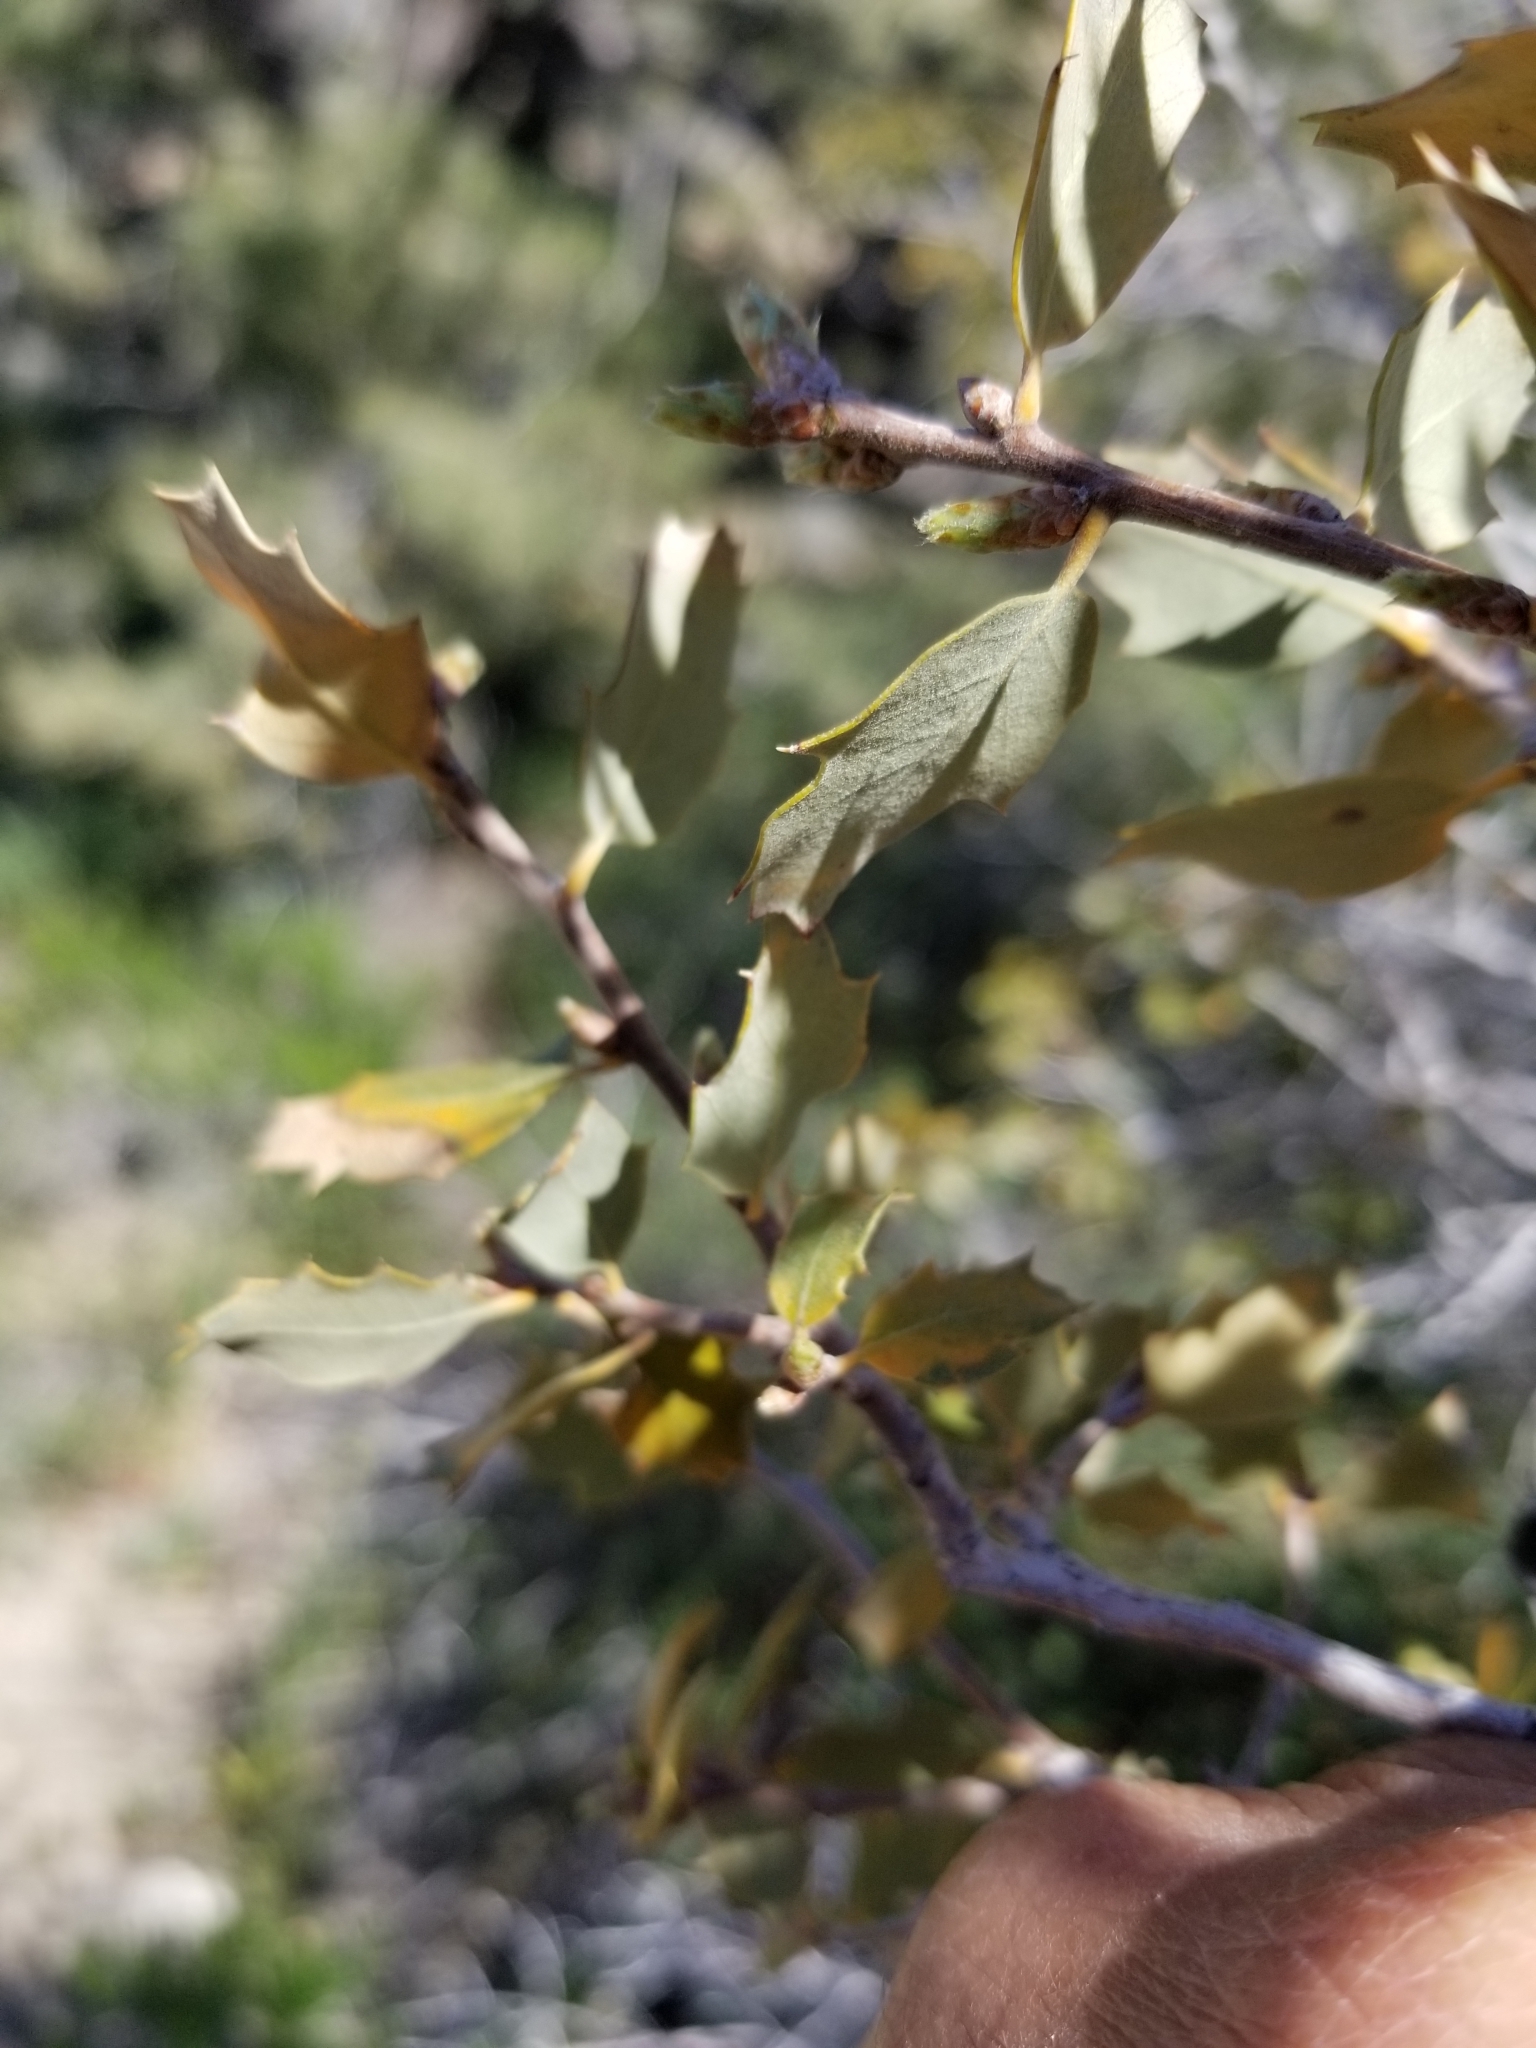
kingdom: Plantae
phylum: Tracheophyta
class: Magnoliopsida
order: Fagales
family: Fagaceae
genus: Quercus
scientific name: Quercus cornelius-mulleri
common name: Muller oak
